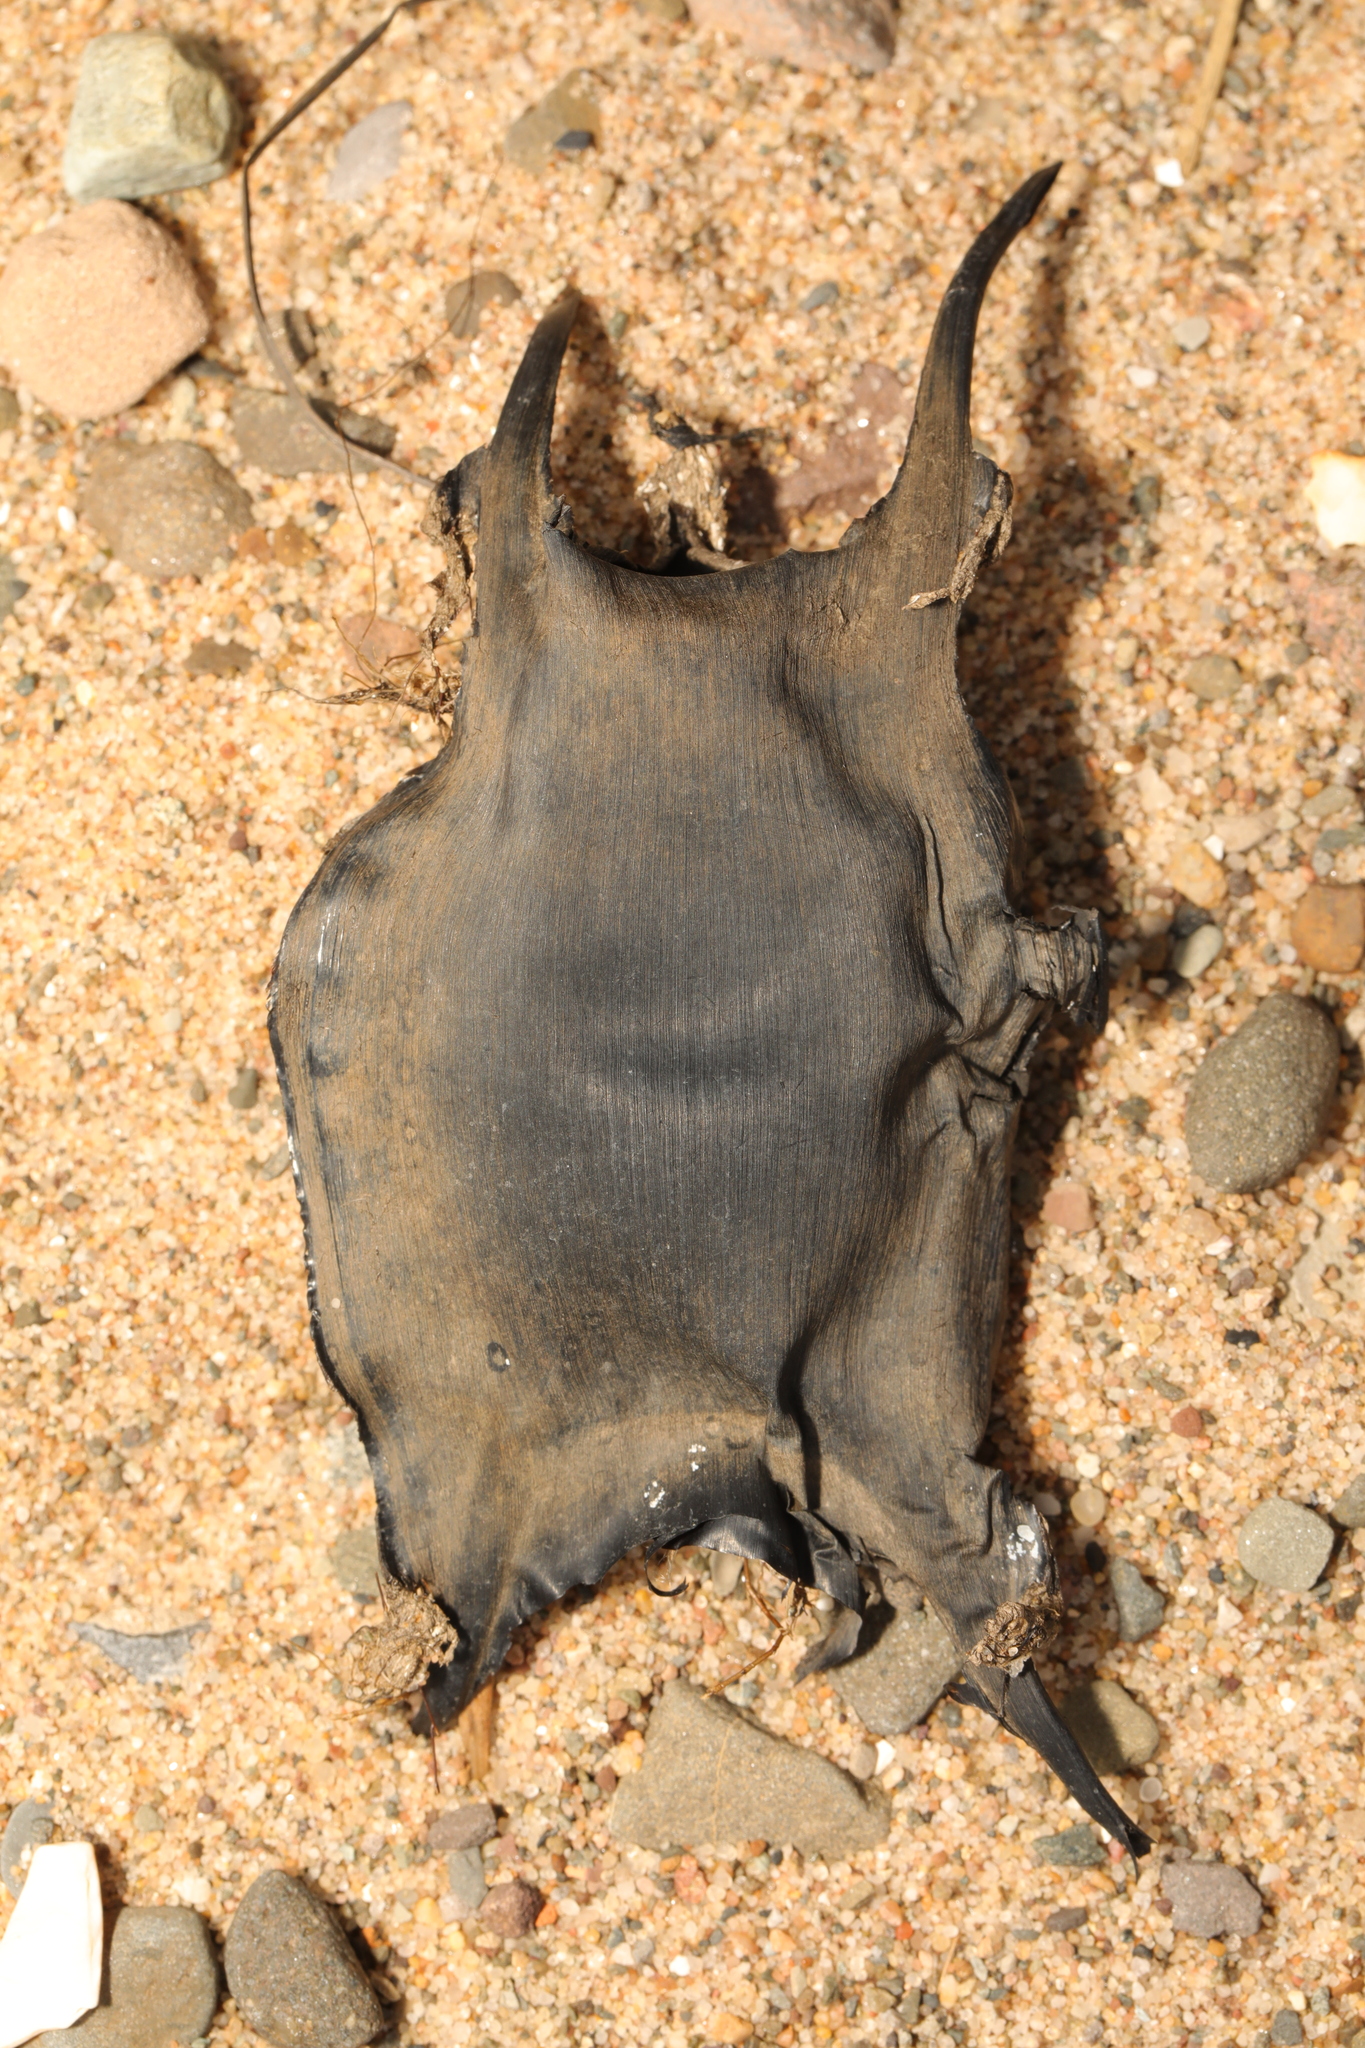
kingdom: Animalia
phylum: Chordata
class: Elasmobranchii
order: Rajiformes
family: Rajidae
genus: Raja
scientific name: Raja clavata
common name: Thornback ray
